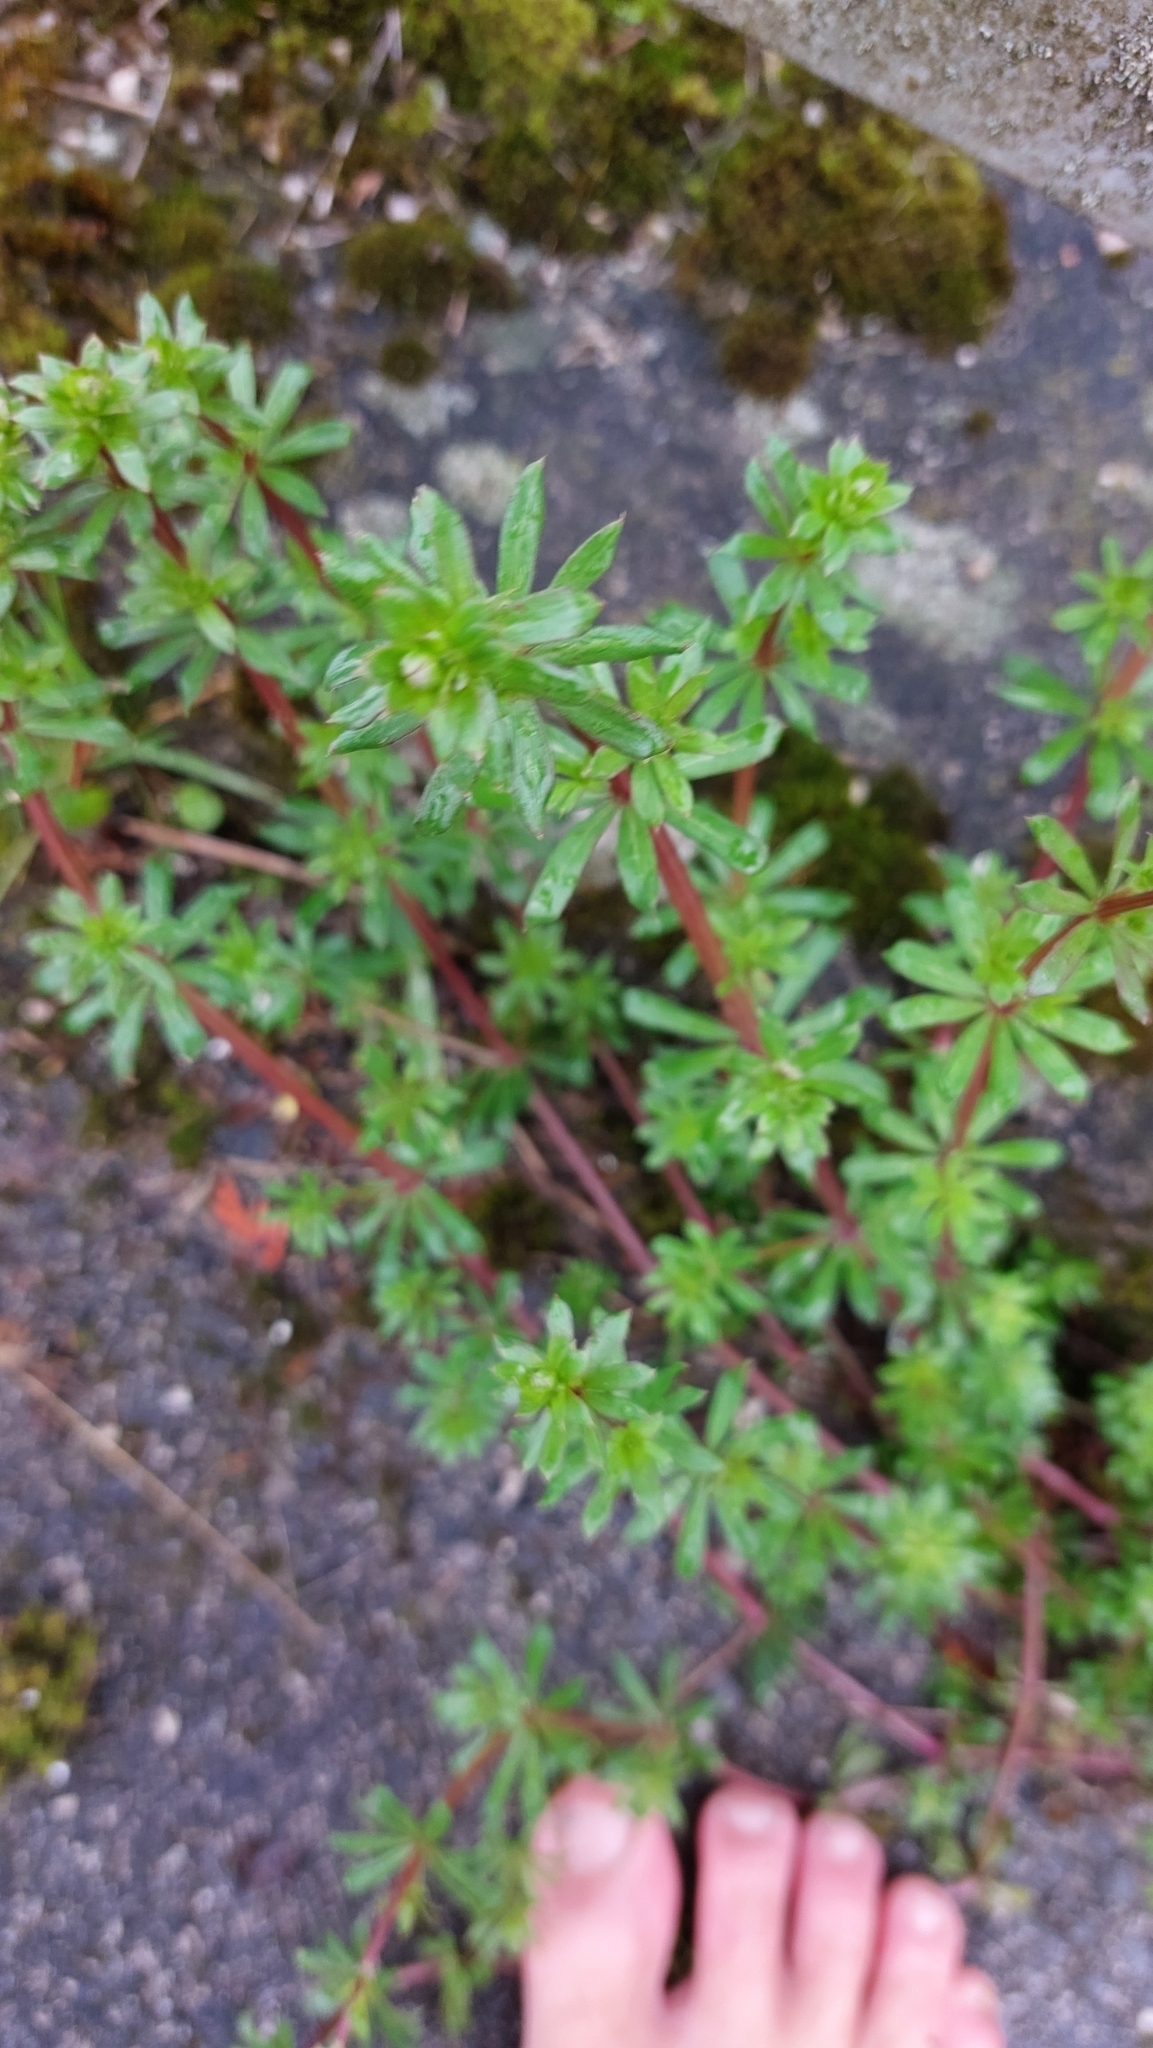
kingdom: Plantae
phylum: Tracheophyta
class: Magnoliopsida
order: Gentianales
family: Rubiaceae
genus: Galium
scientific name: Galium album
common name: White bedstraw
